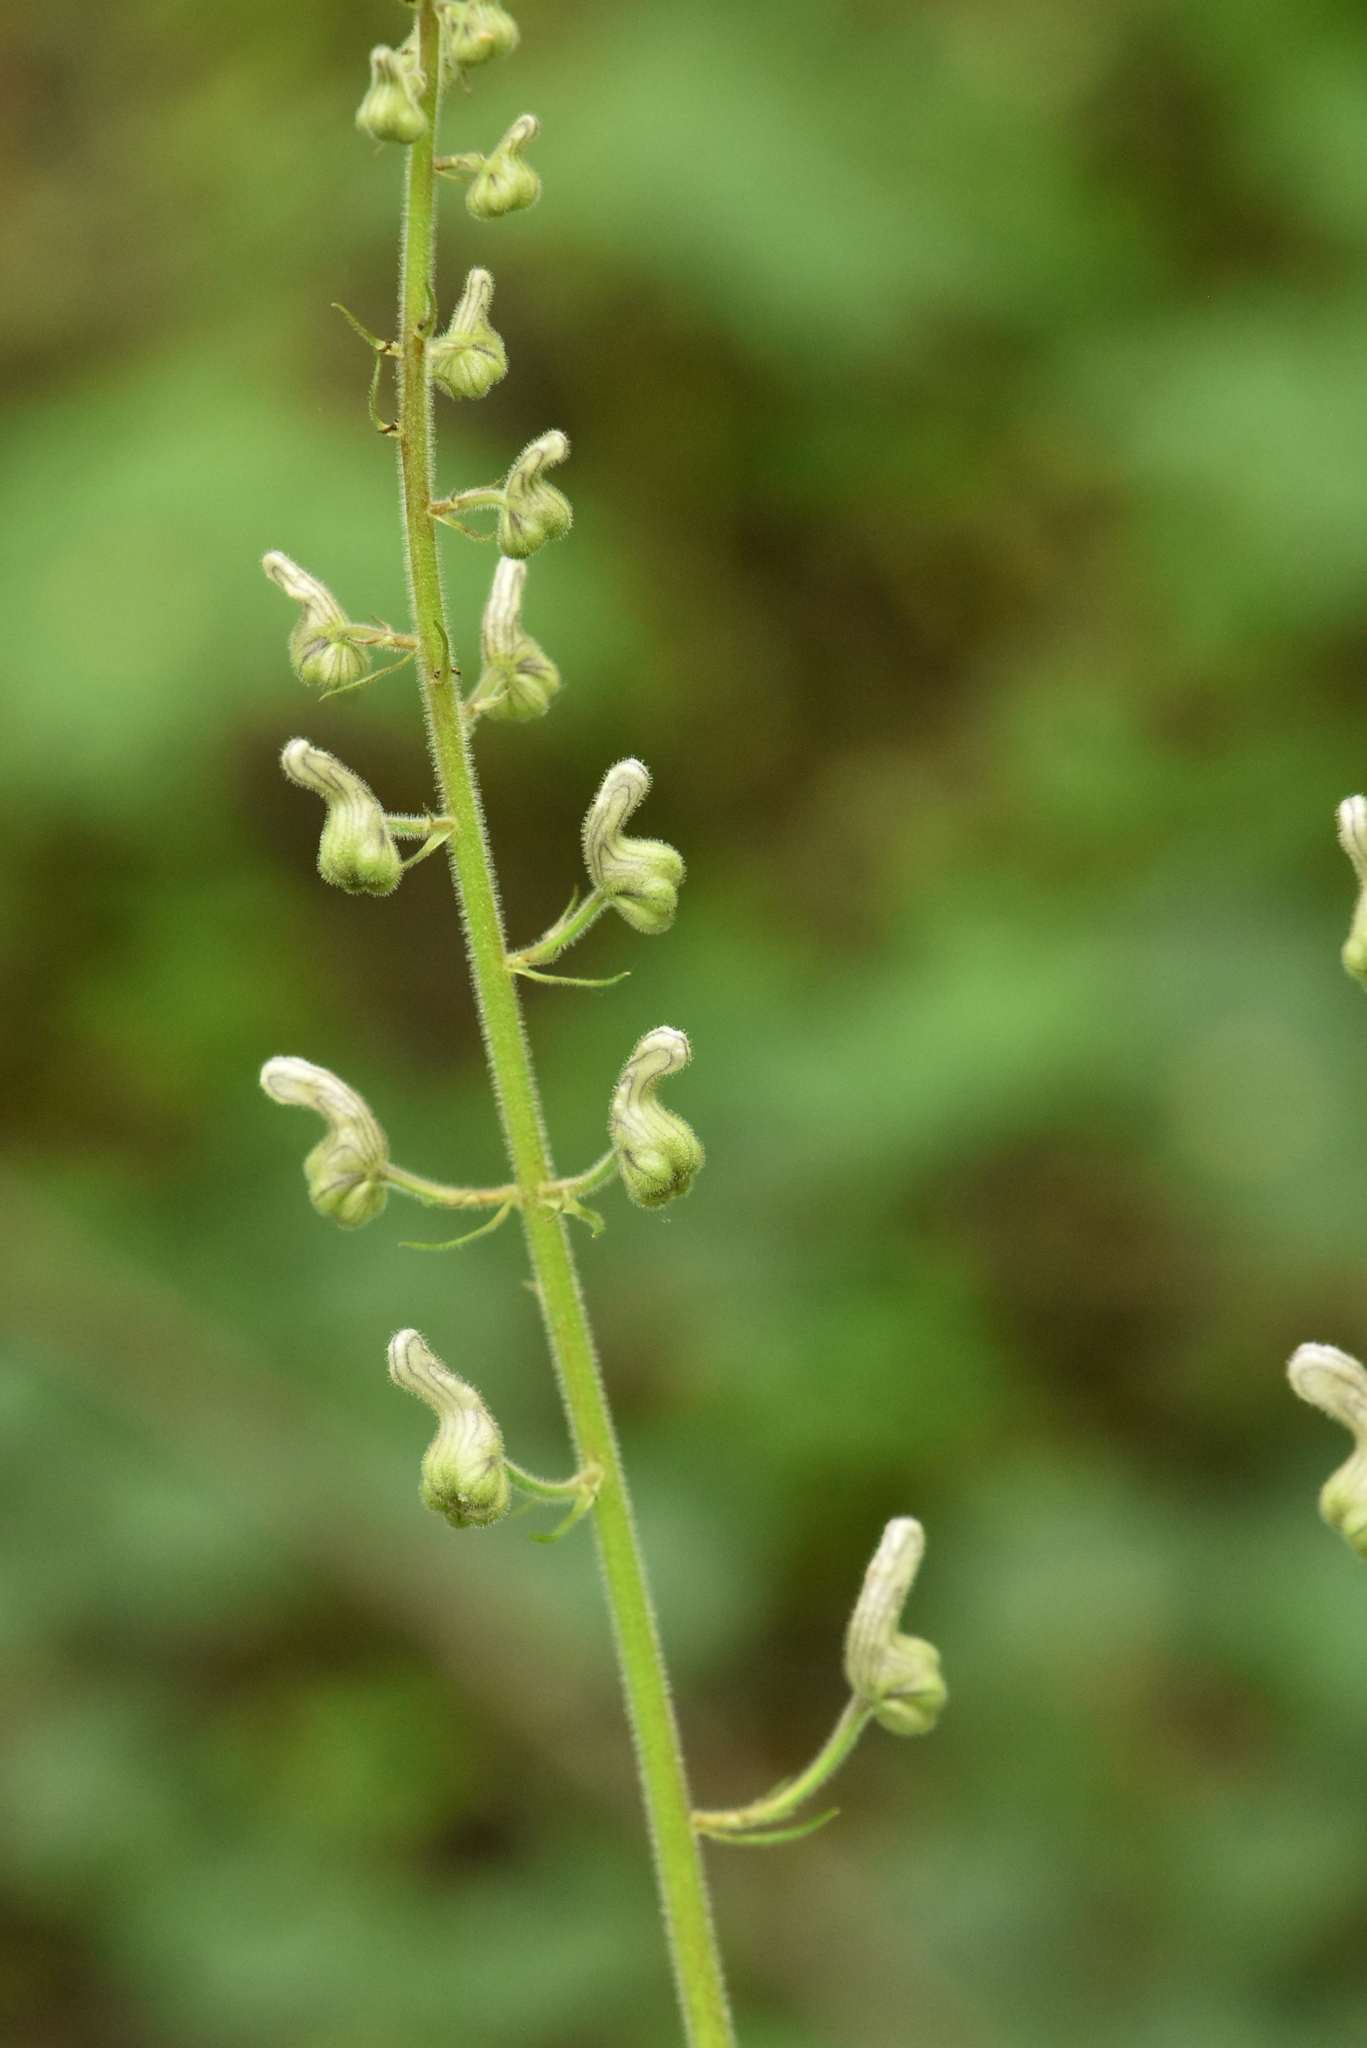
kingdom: Plantae
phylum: Tracheophyta
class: Magnoliopsida
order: Ranunculales
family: Ranunculaceae
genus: Aconitum
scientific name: Aconitum septentrionale
